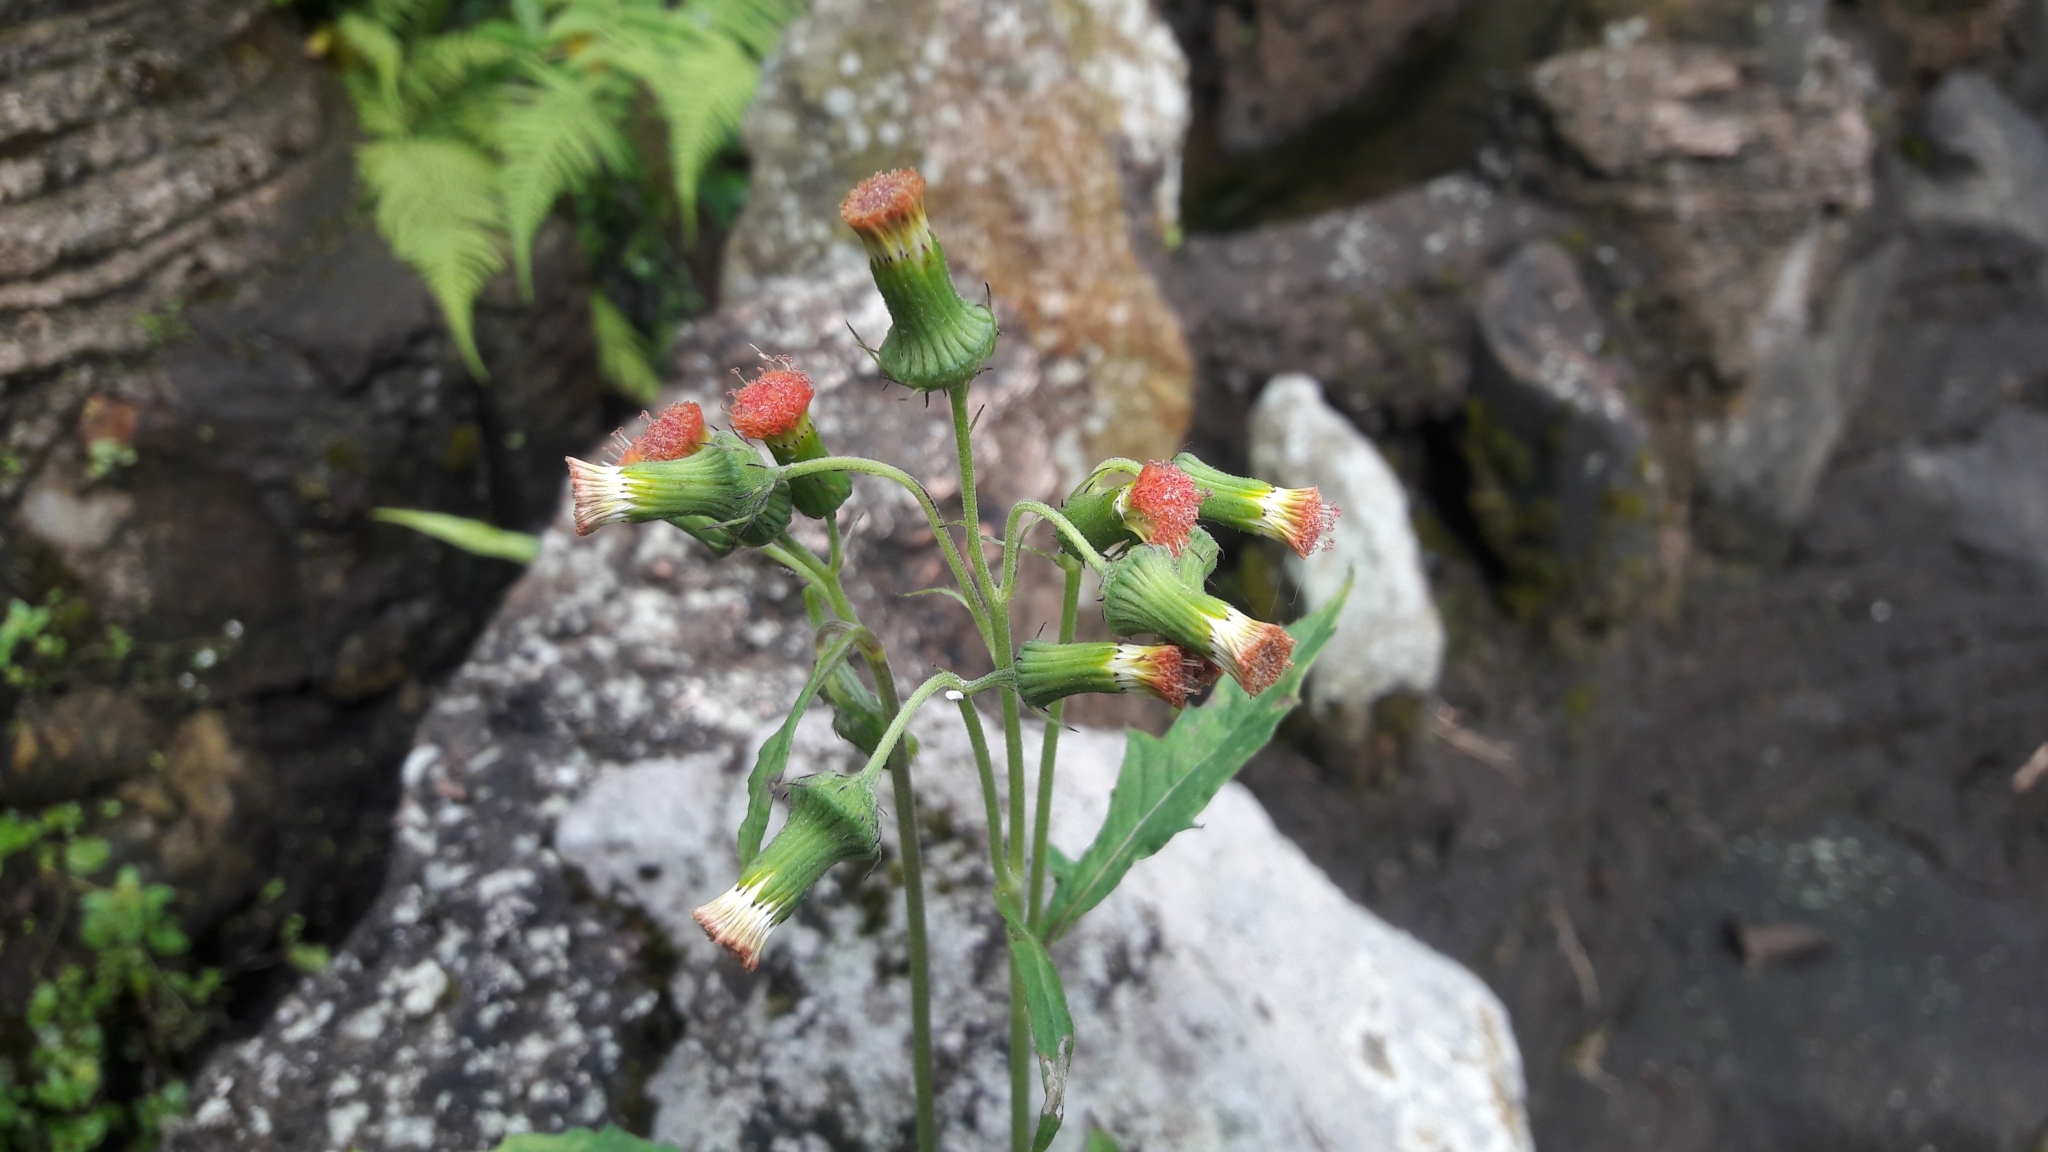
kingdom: Plantae
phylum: Tracheophyta
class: Magnoliopsida
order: Asterales
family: Asteraceae
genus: Crassocephalum
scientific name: Crassocephalum crepidioides
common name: Redflower ragleaf
